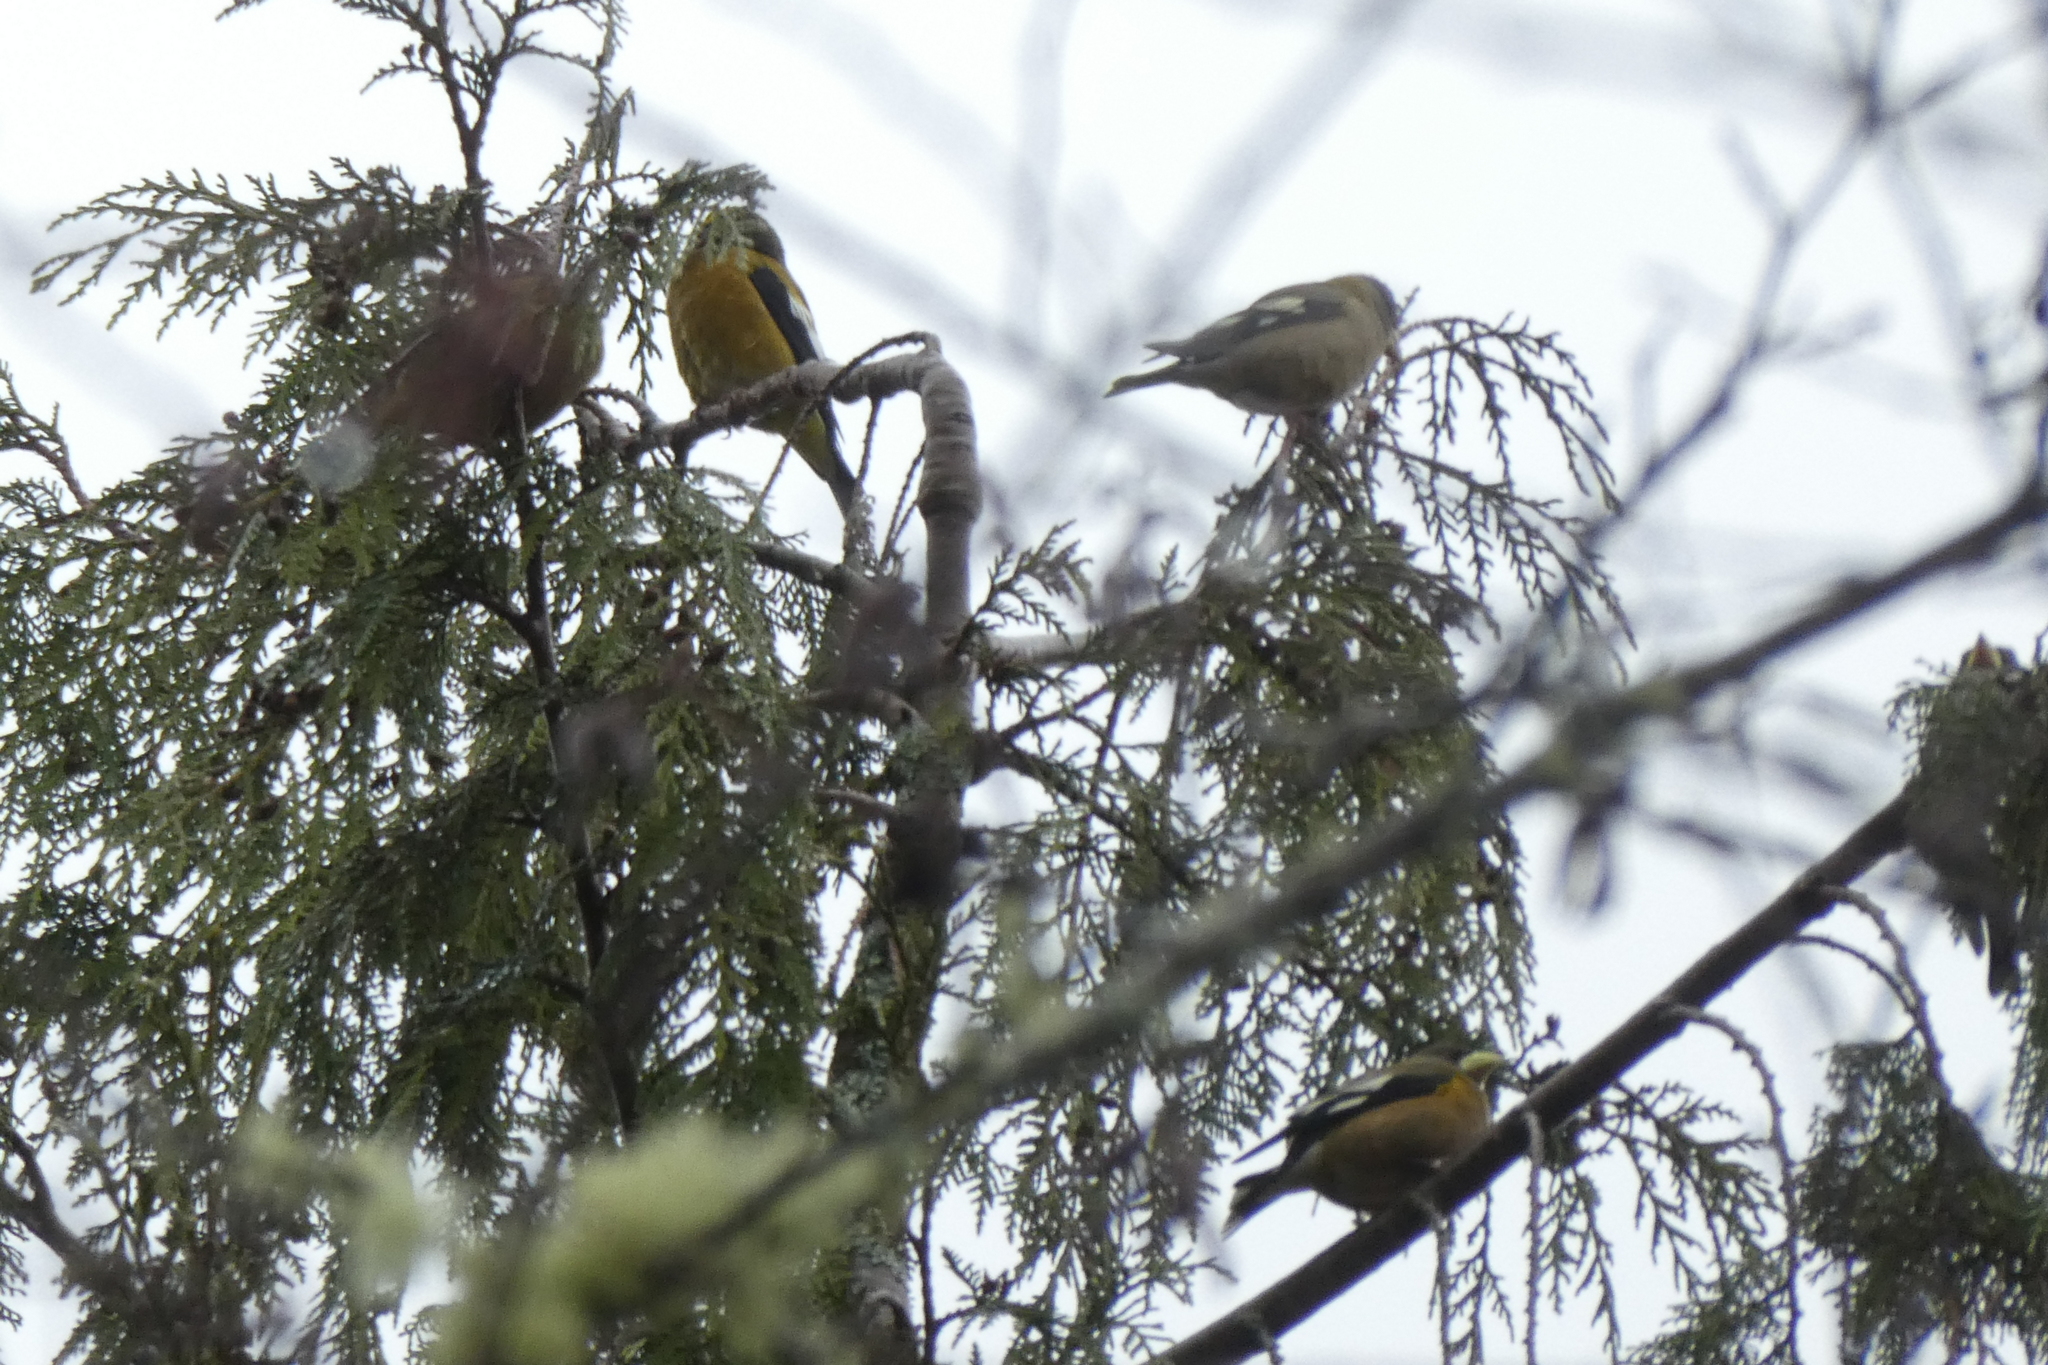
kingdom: Animalia
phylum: Chordata
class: Aves
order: Passeriformes
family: Fringillidae
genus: Hesperiphona
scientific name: Hesperiphona vespertina
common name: Evening grosbeak
